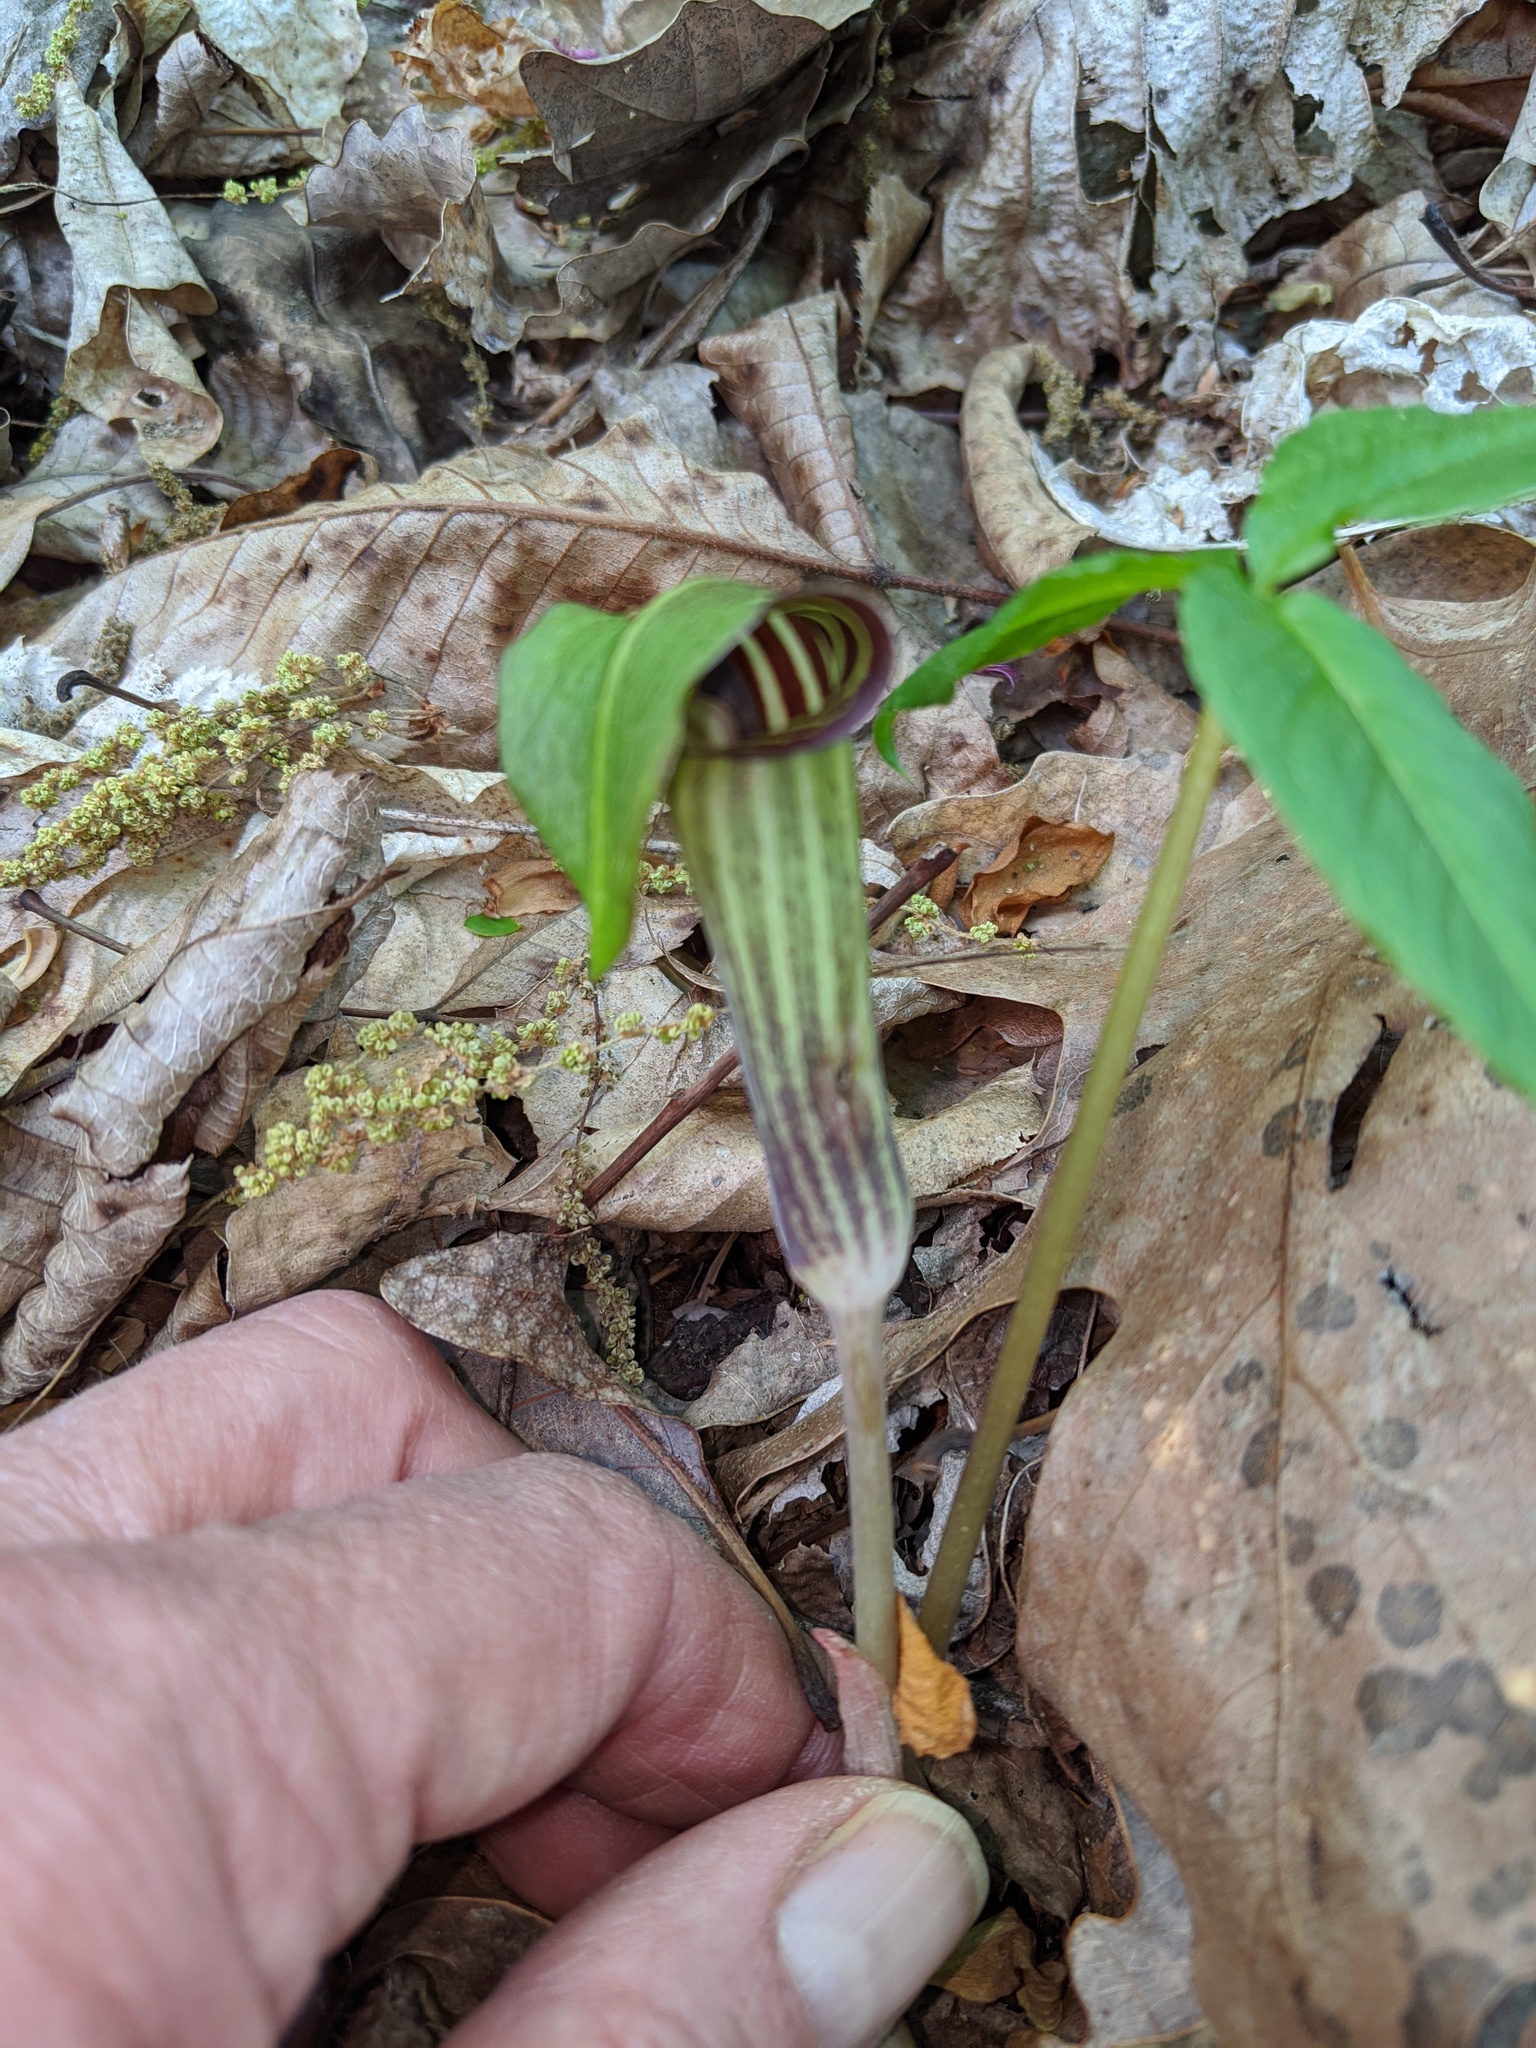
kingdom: Plantae
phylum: Tracheophyta
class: Liliopsida
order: Alismatales
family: Araceae
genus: Arisaema
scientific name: Arisaema triphyllum
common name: Jack-in-the-pulpit
